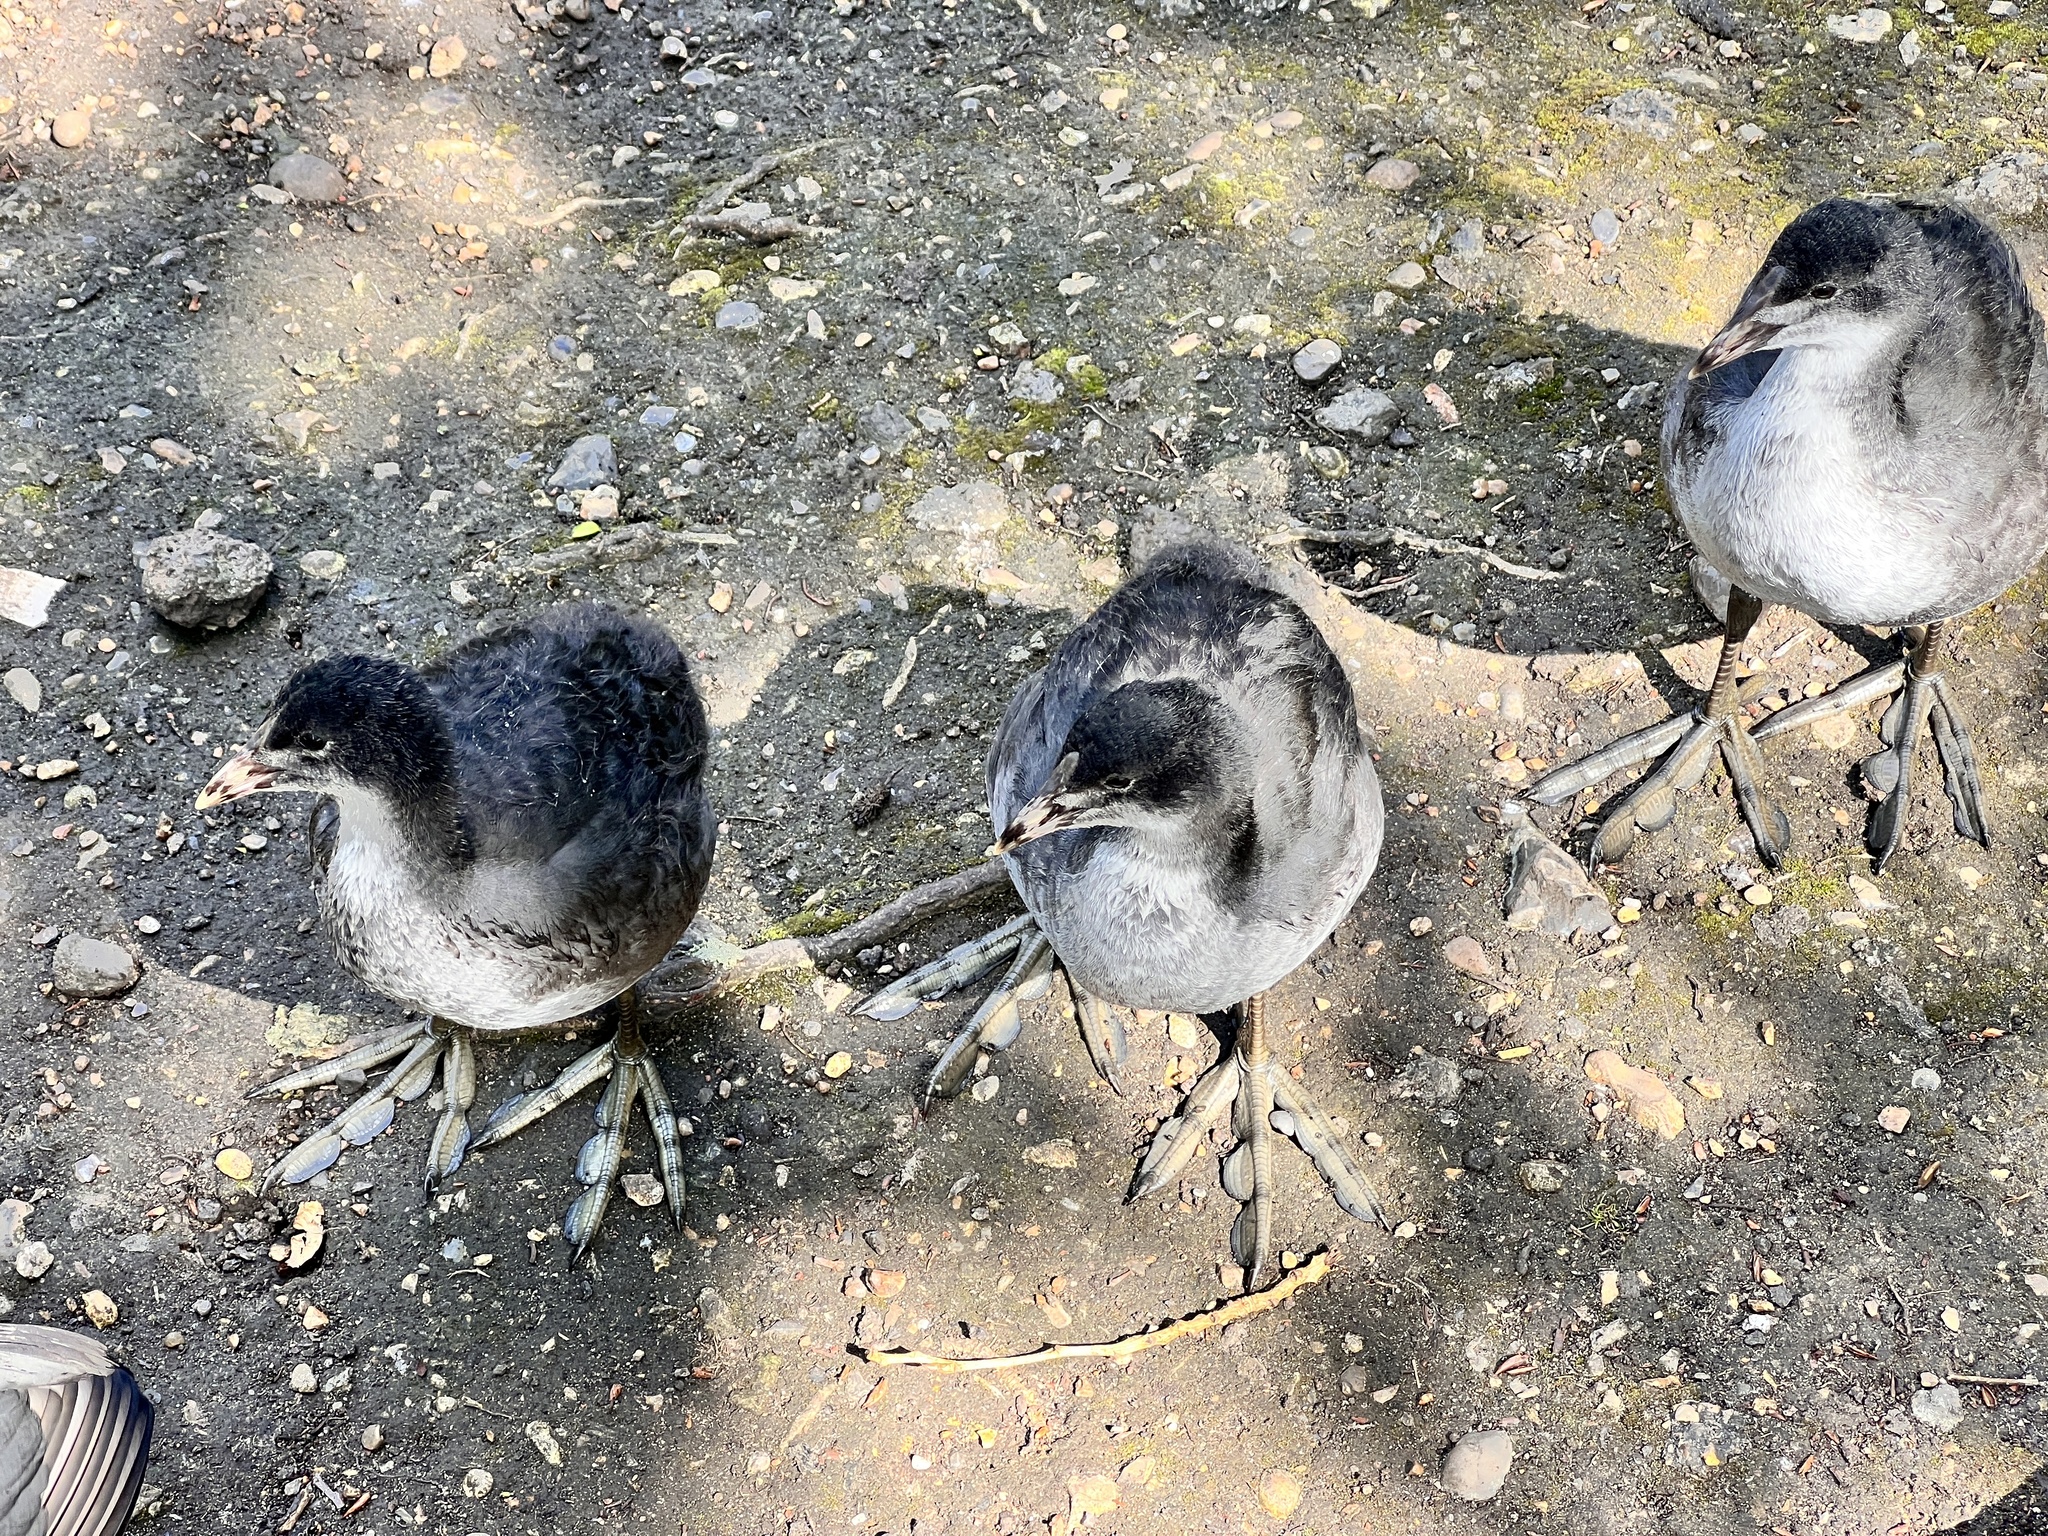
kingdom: Animalia
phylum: Chordata
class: Aves
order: Gruiformes
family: Rallidae
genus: Fulica
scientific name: Fulica atra
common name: Eurasian coot
